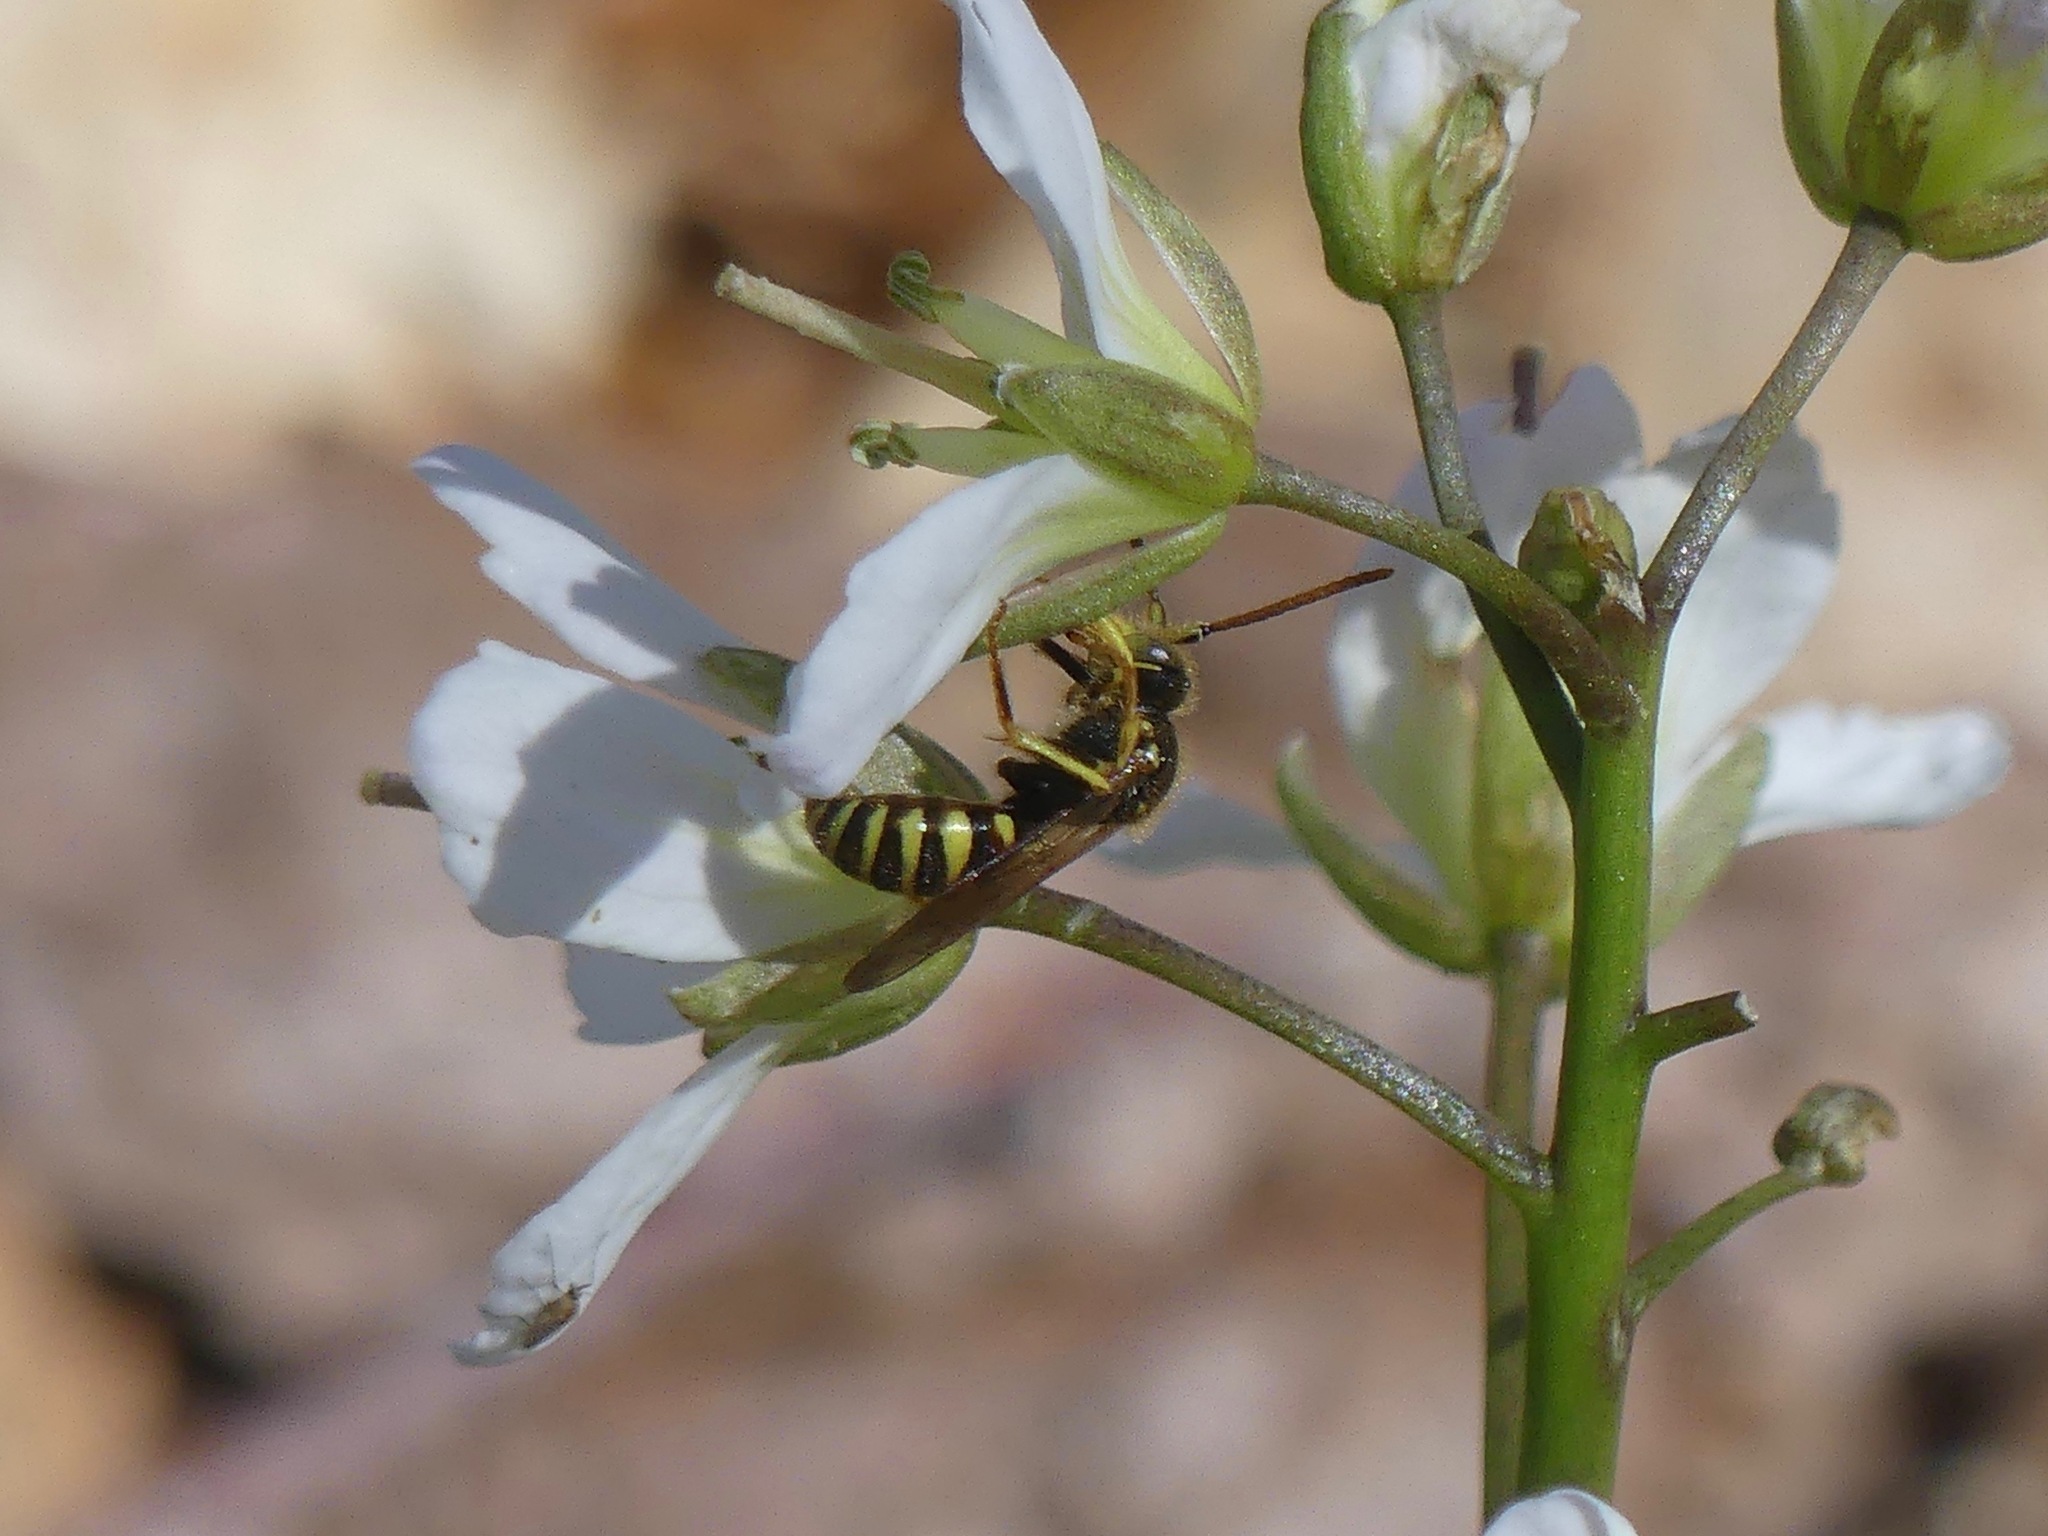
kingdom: Animalia
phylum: Arthropoda
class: Insecta
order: Hymenoptera
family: Apidae
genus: Nomada
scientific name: Nomada
